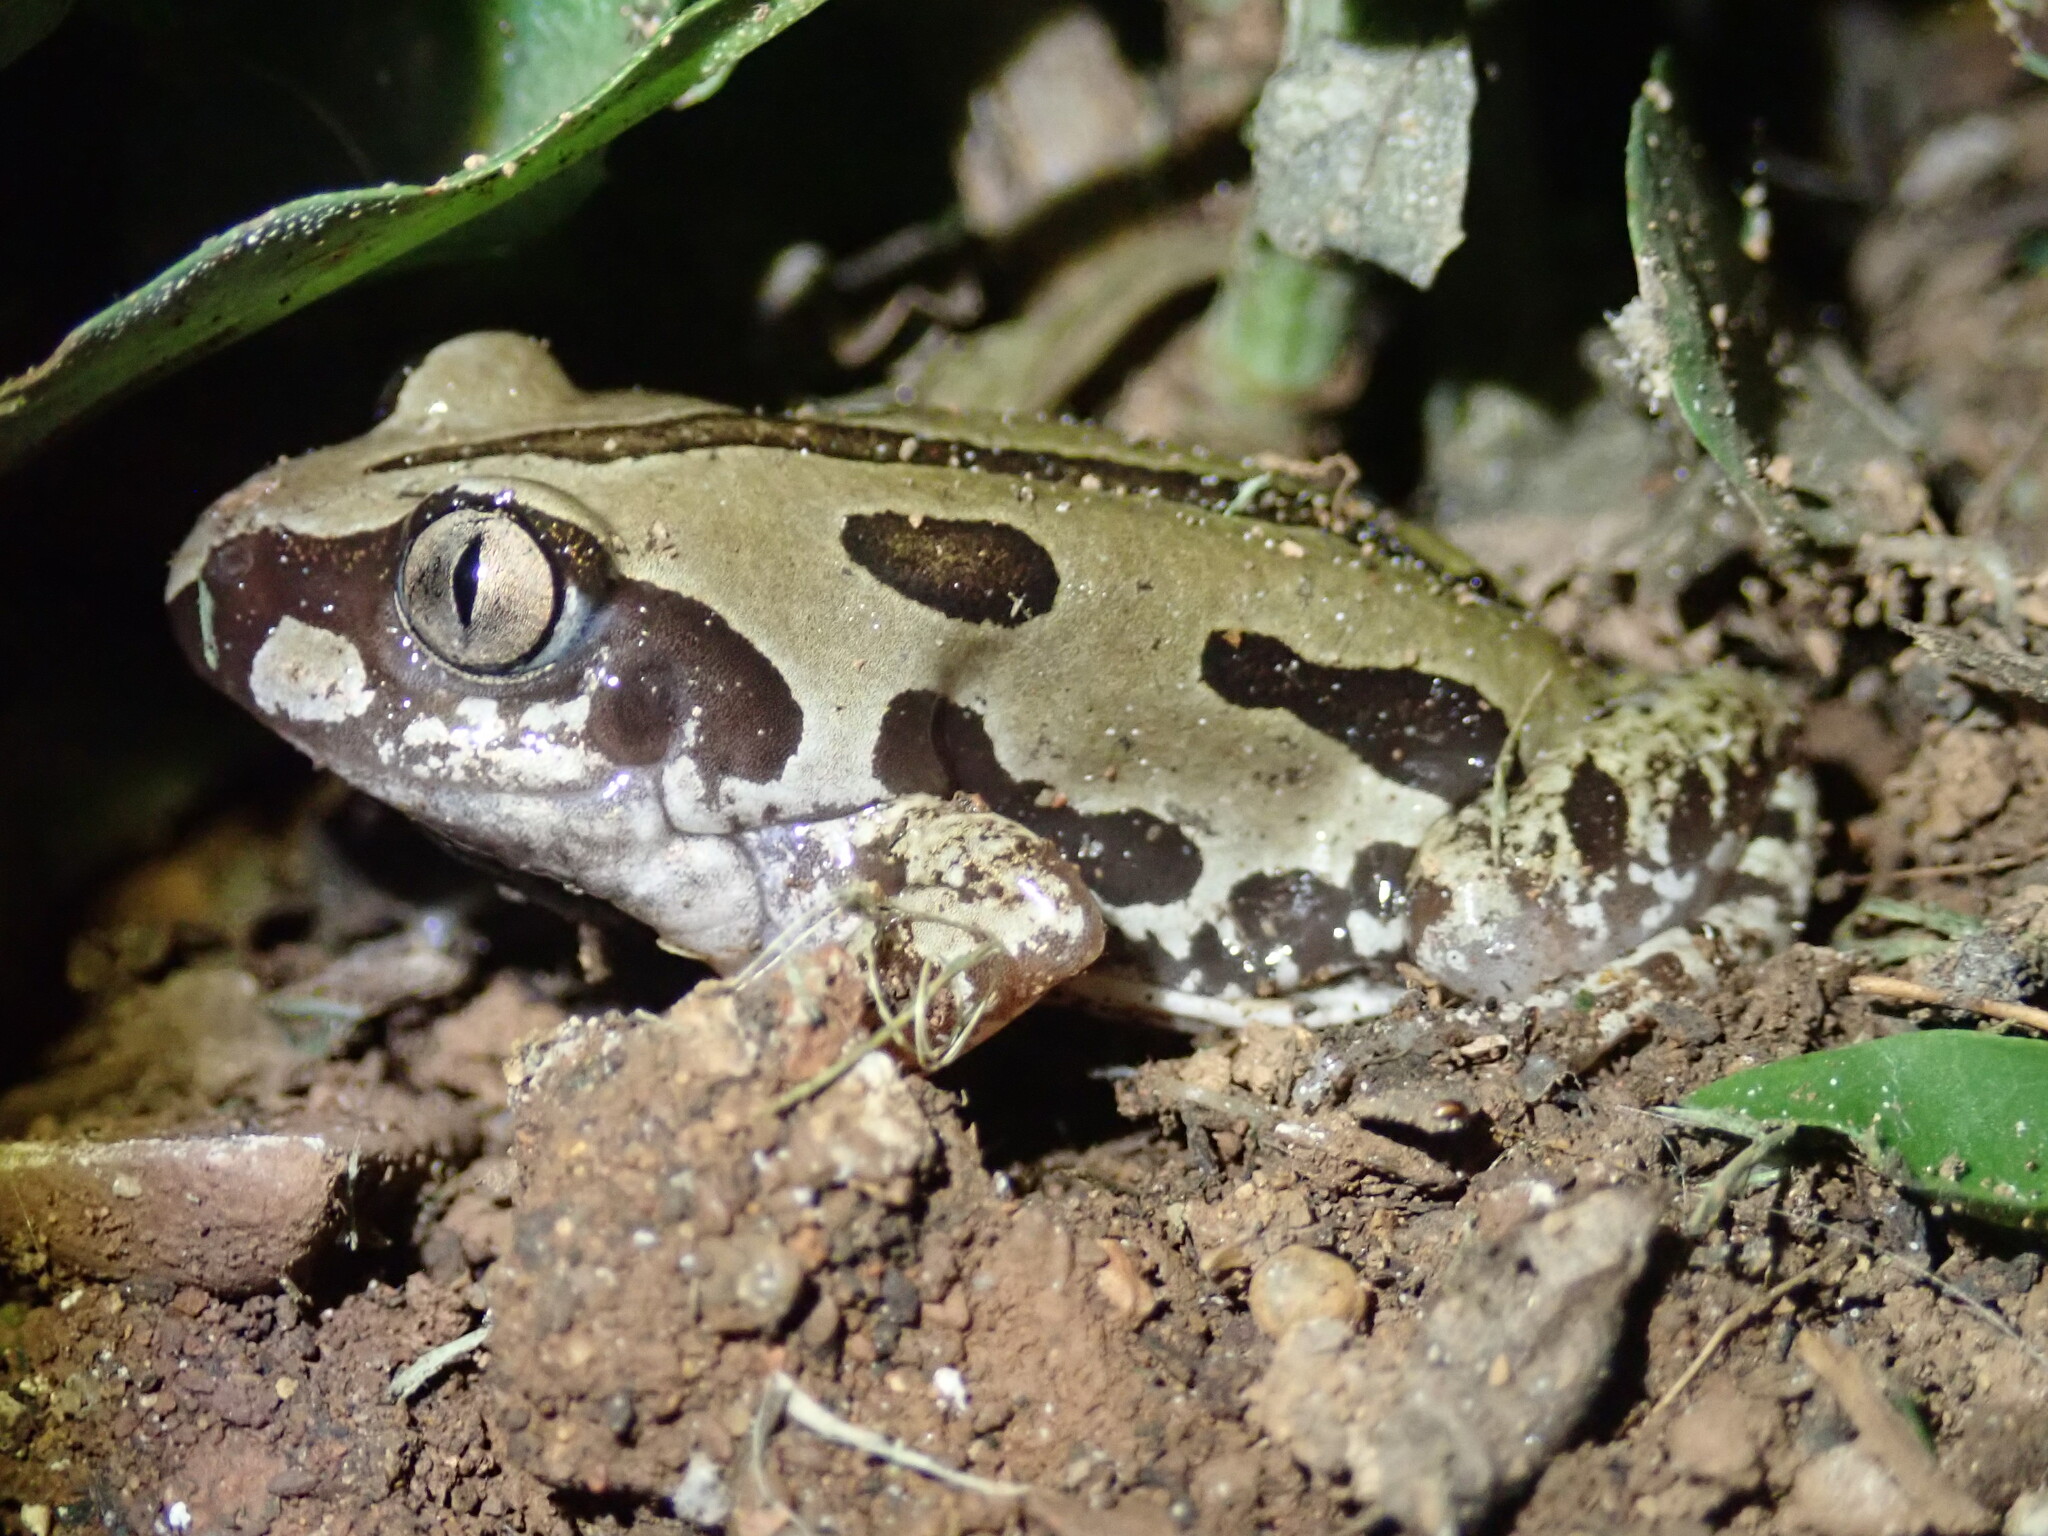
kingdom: Animalia
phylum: Chordata
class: Amphibia
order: Anura
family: Hyperoliidae
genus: Kassina
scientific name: Kassina senegalensis
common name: Senegal land frog
